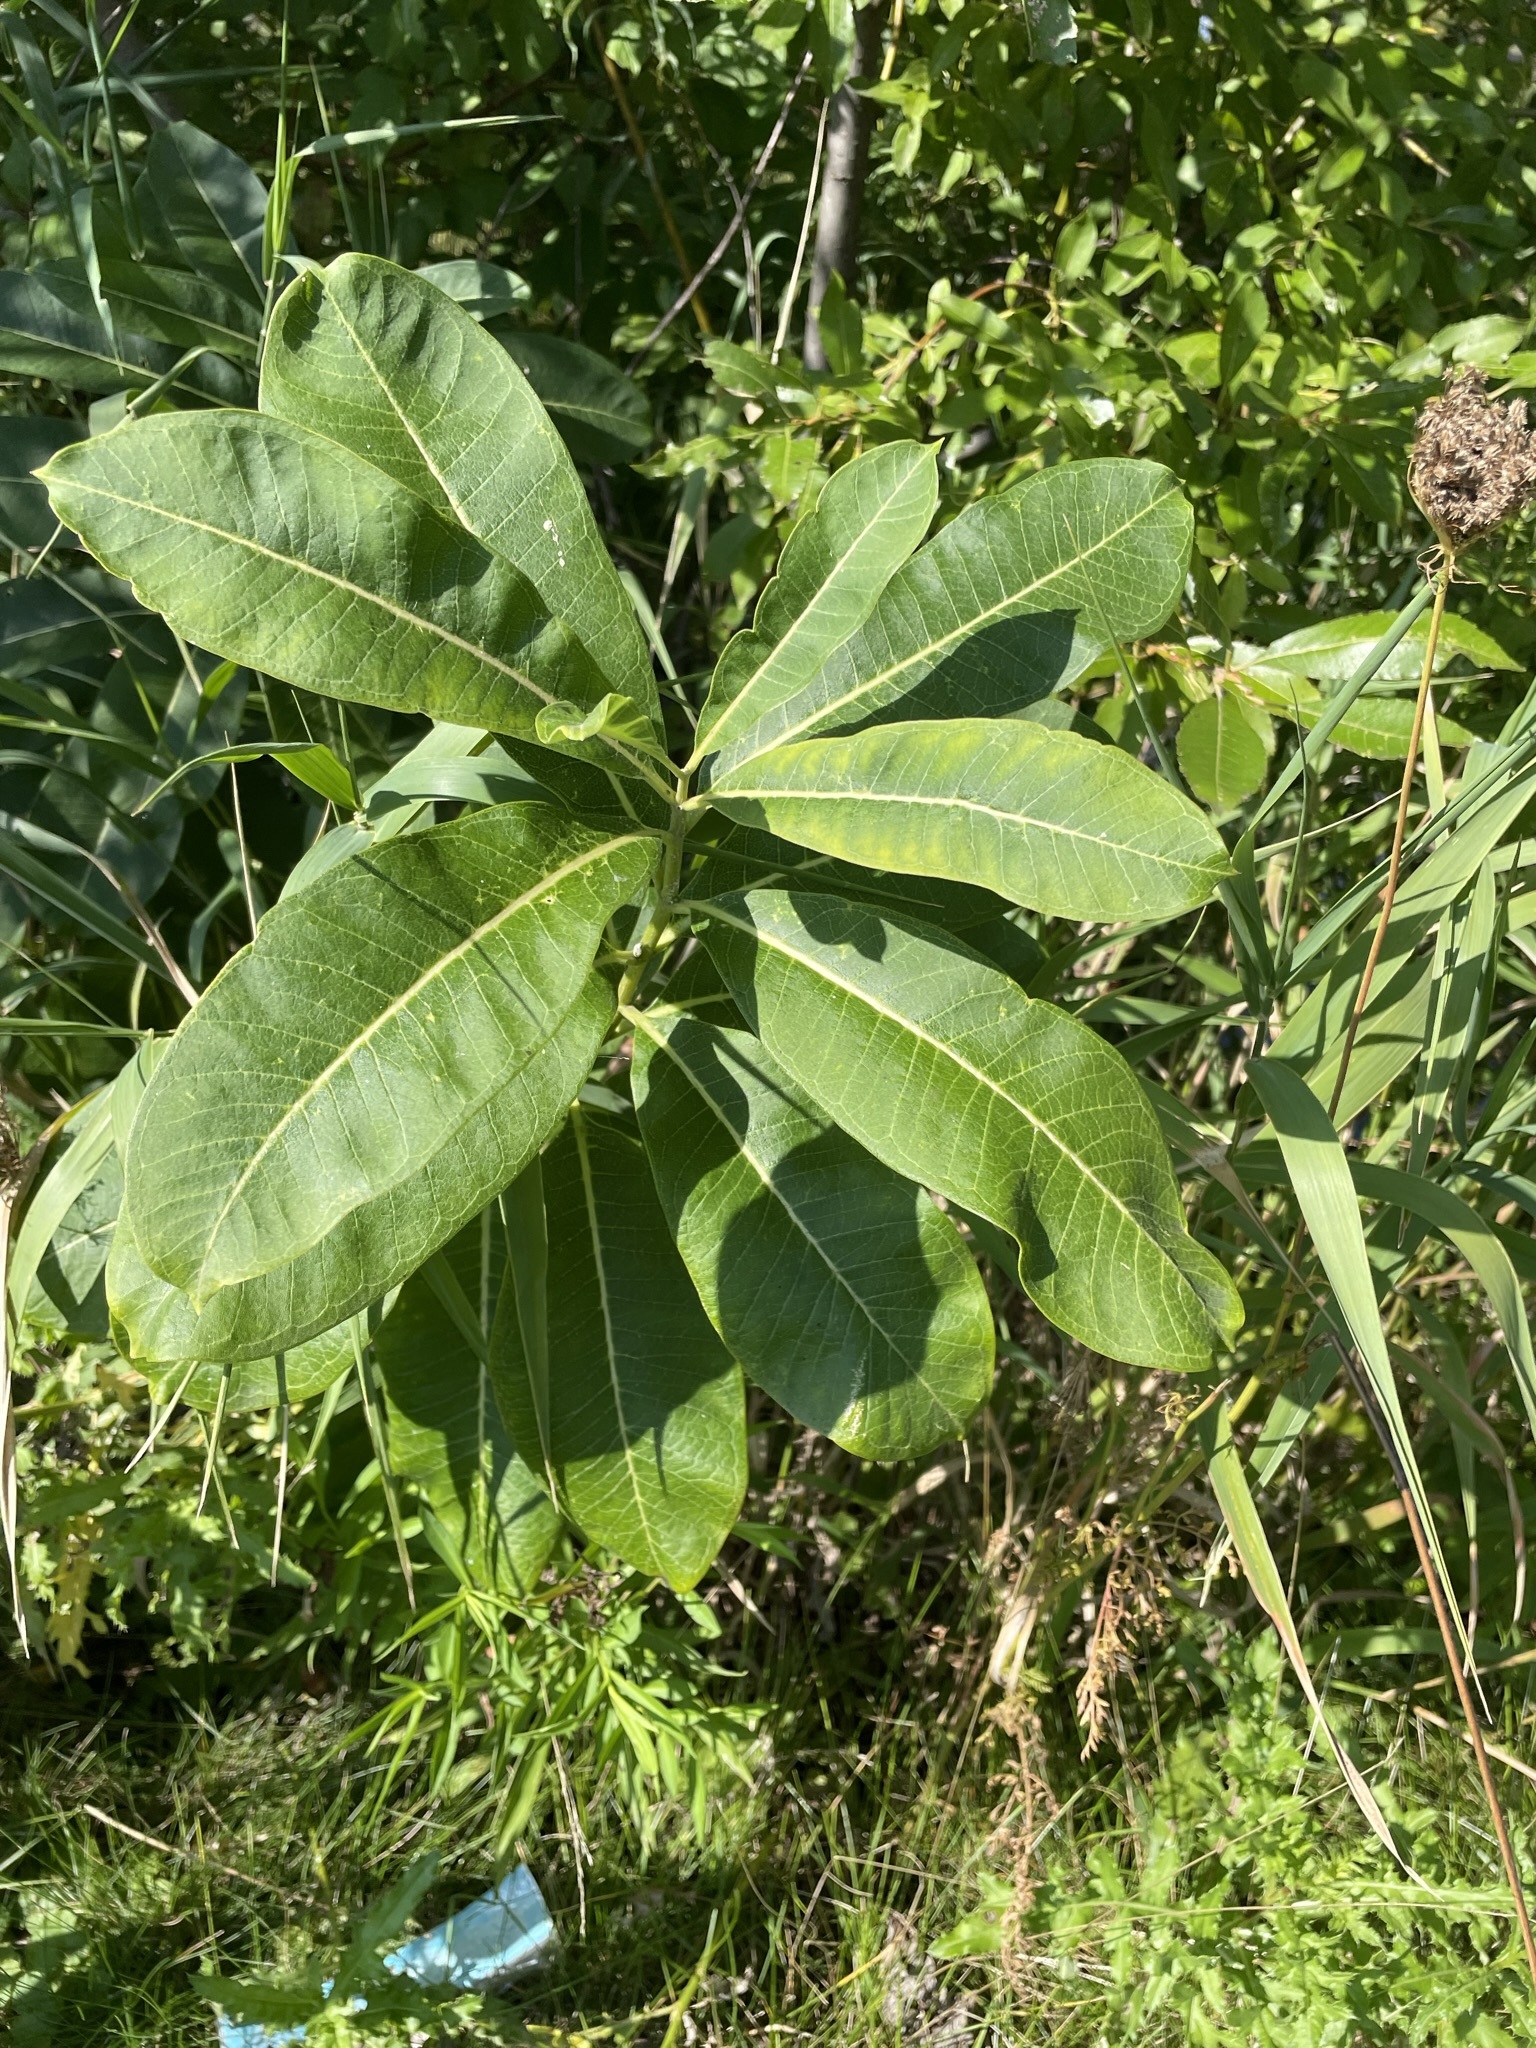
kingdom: Plantae
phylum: Tracheophyta
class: Magnoliopsida
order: Gentianales
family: Apocynaceae
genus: Asclepias
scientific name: Asclepias syriaca
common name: Common milkweed
